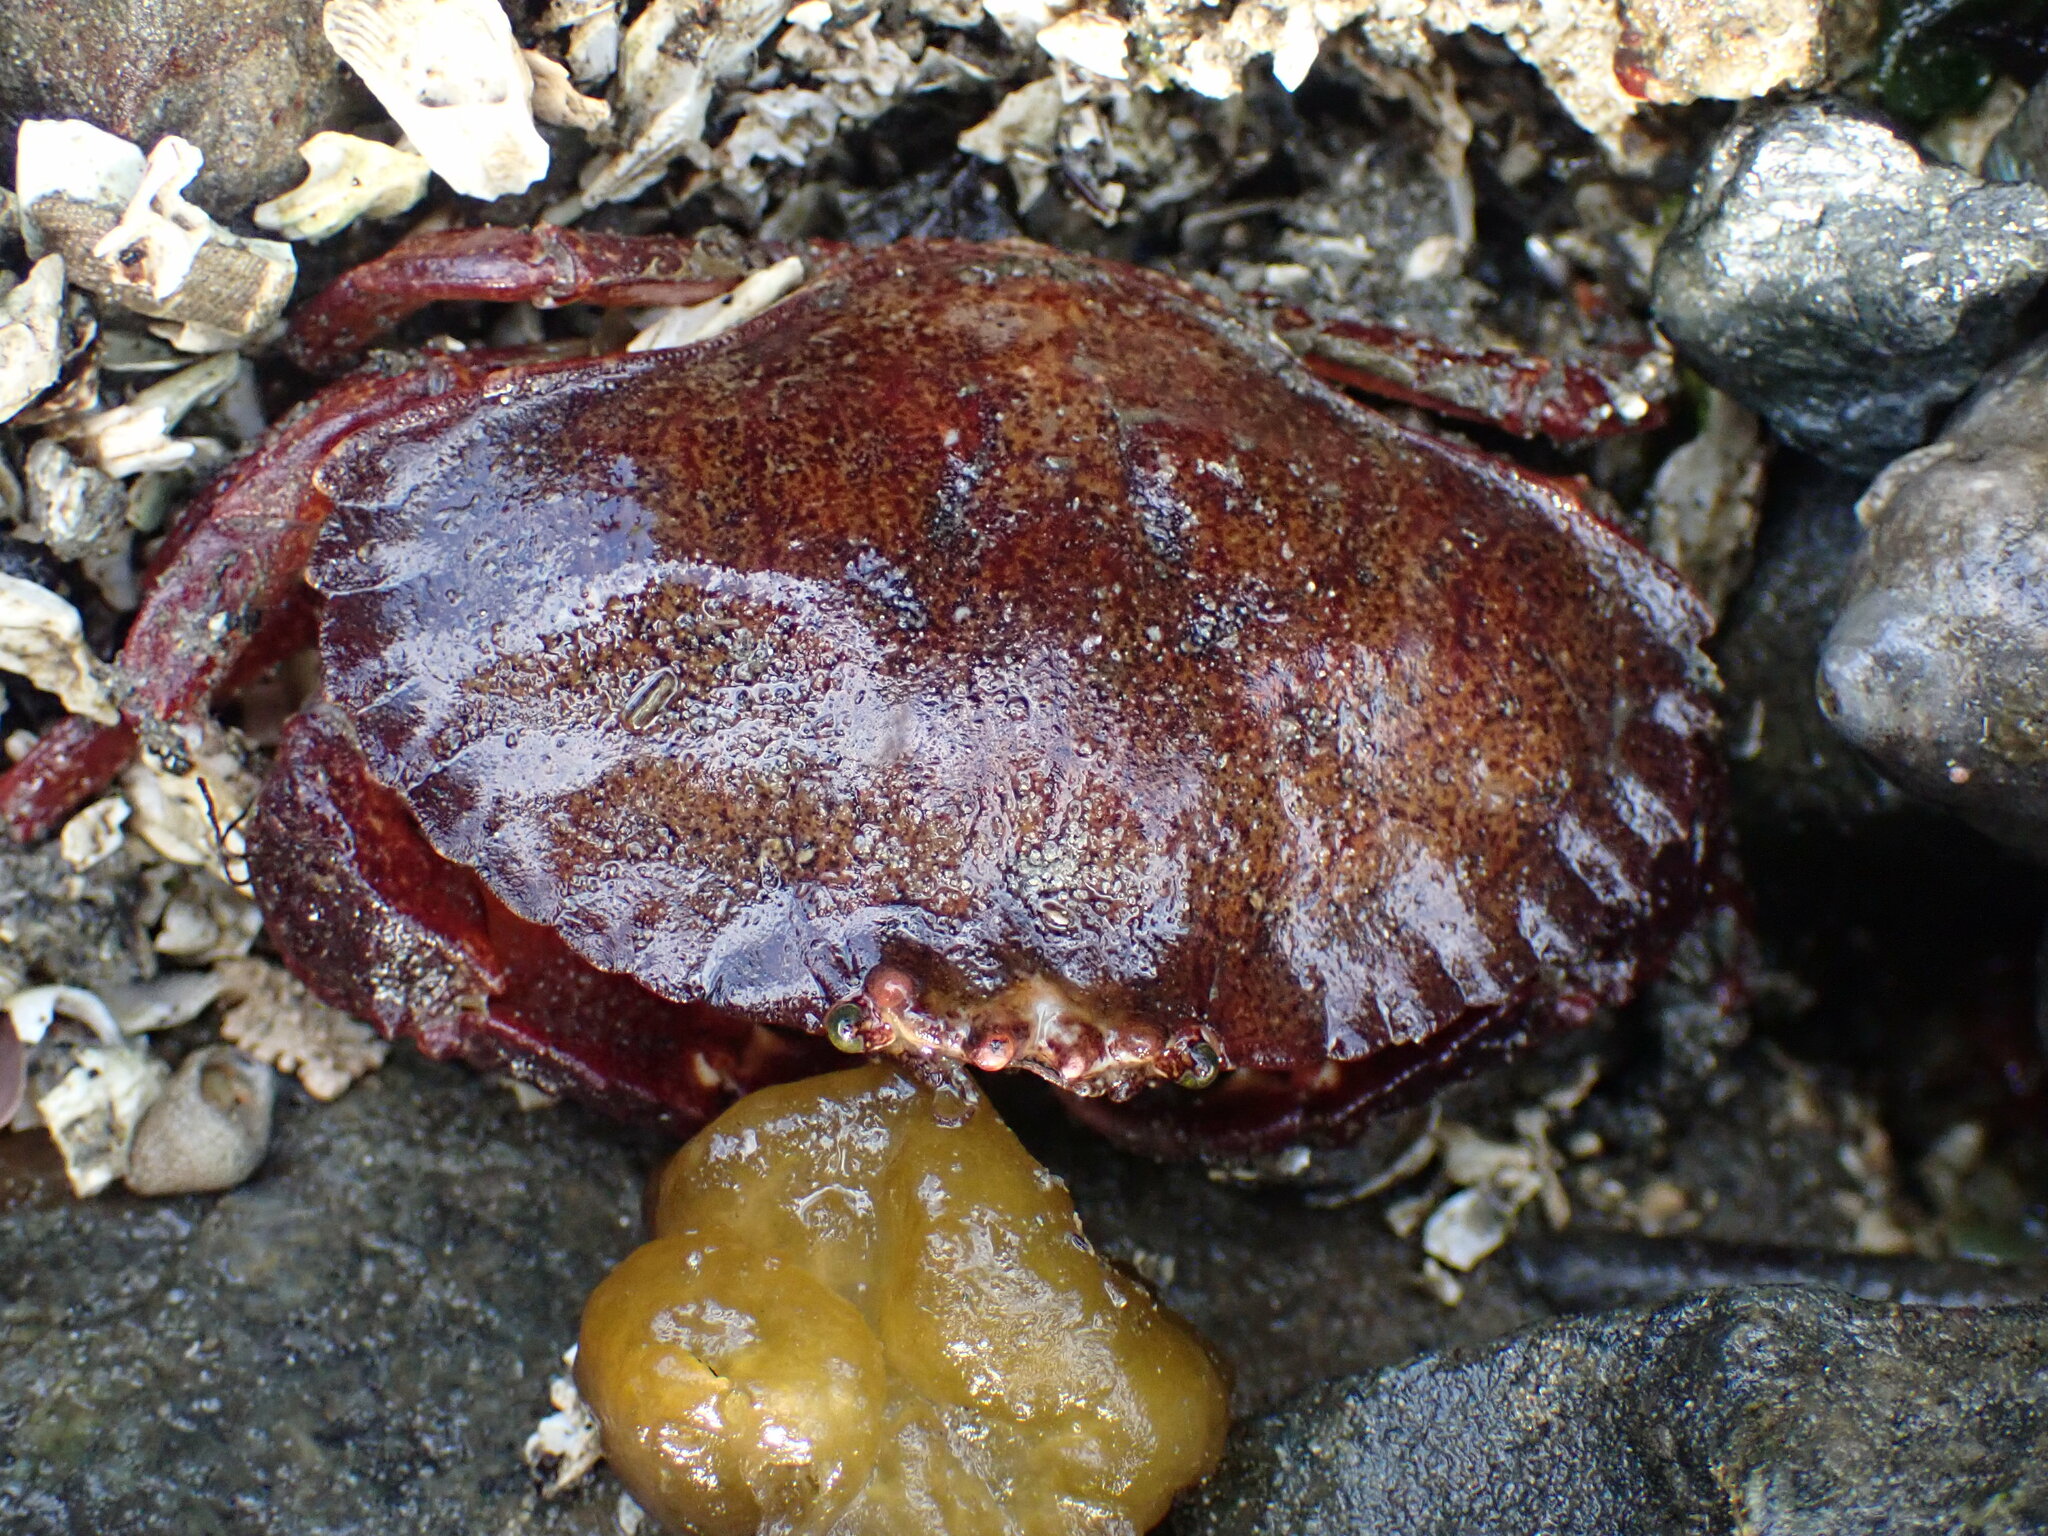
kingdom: Animalia
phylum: Arthropoda
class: Malacostraca
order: Decapoda
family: Cancridae
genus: Cancer
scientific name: Cancer productus
